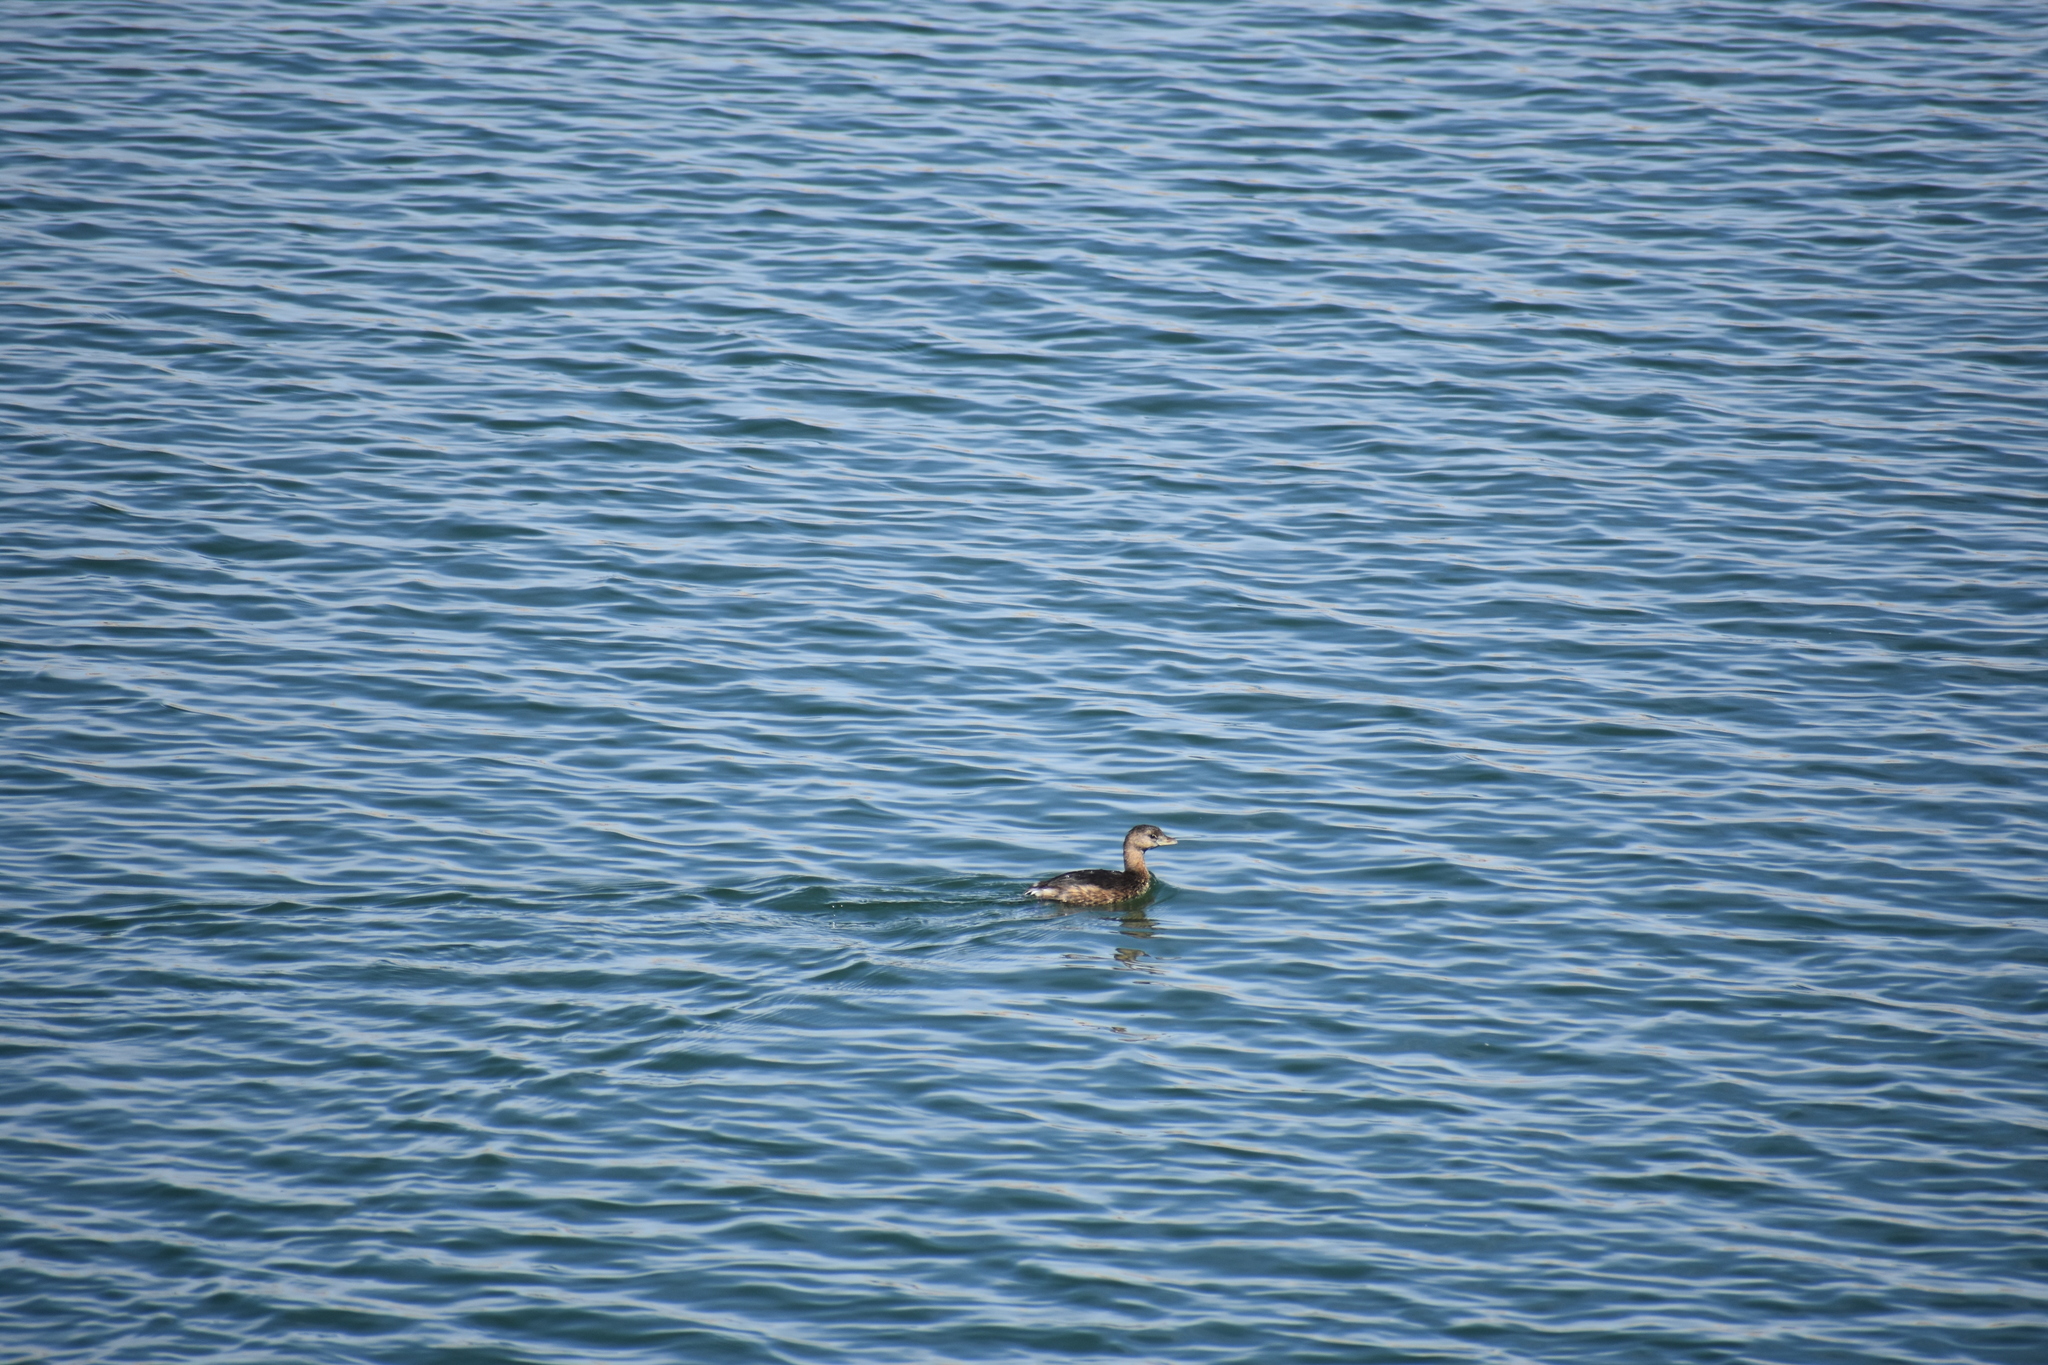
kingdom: Animalia
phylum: Chordata
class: Aves
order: Podicipediformes
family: Podicipedidae
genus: Podilymbus
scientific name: Podilymbus podiceps
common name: Pied-billed grebe
